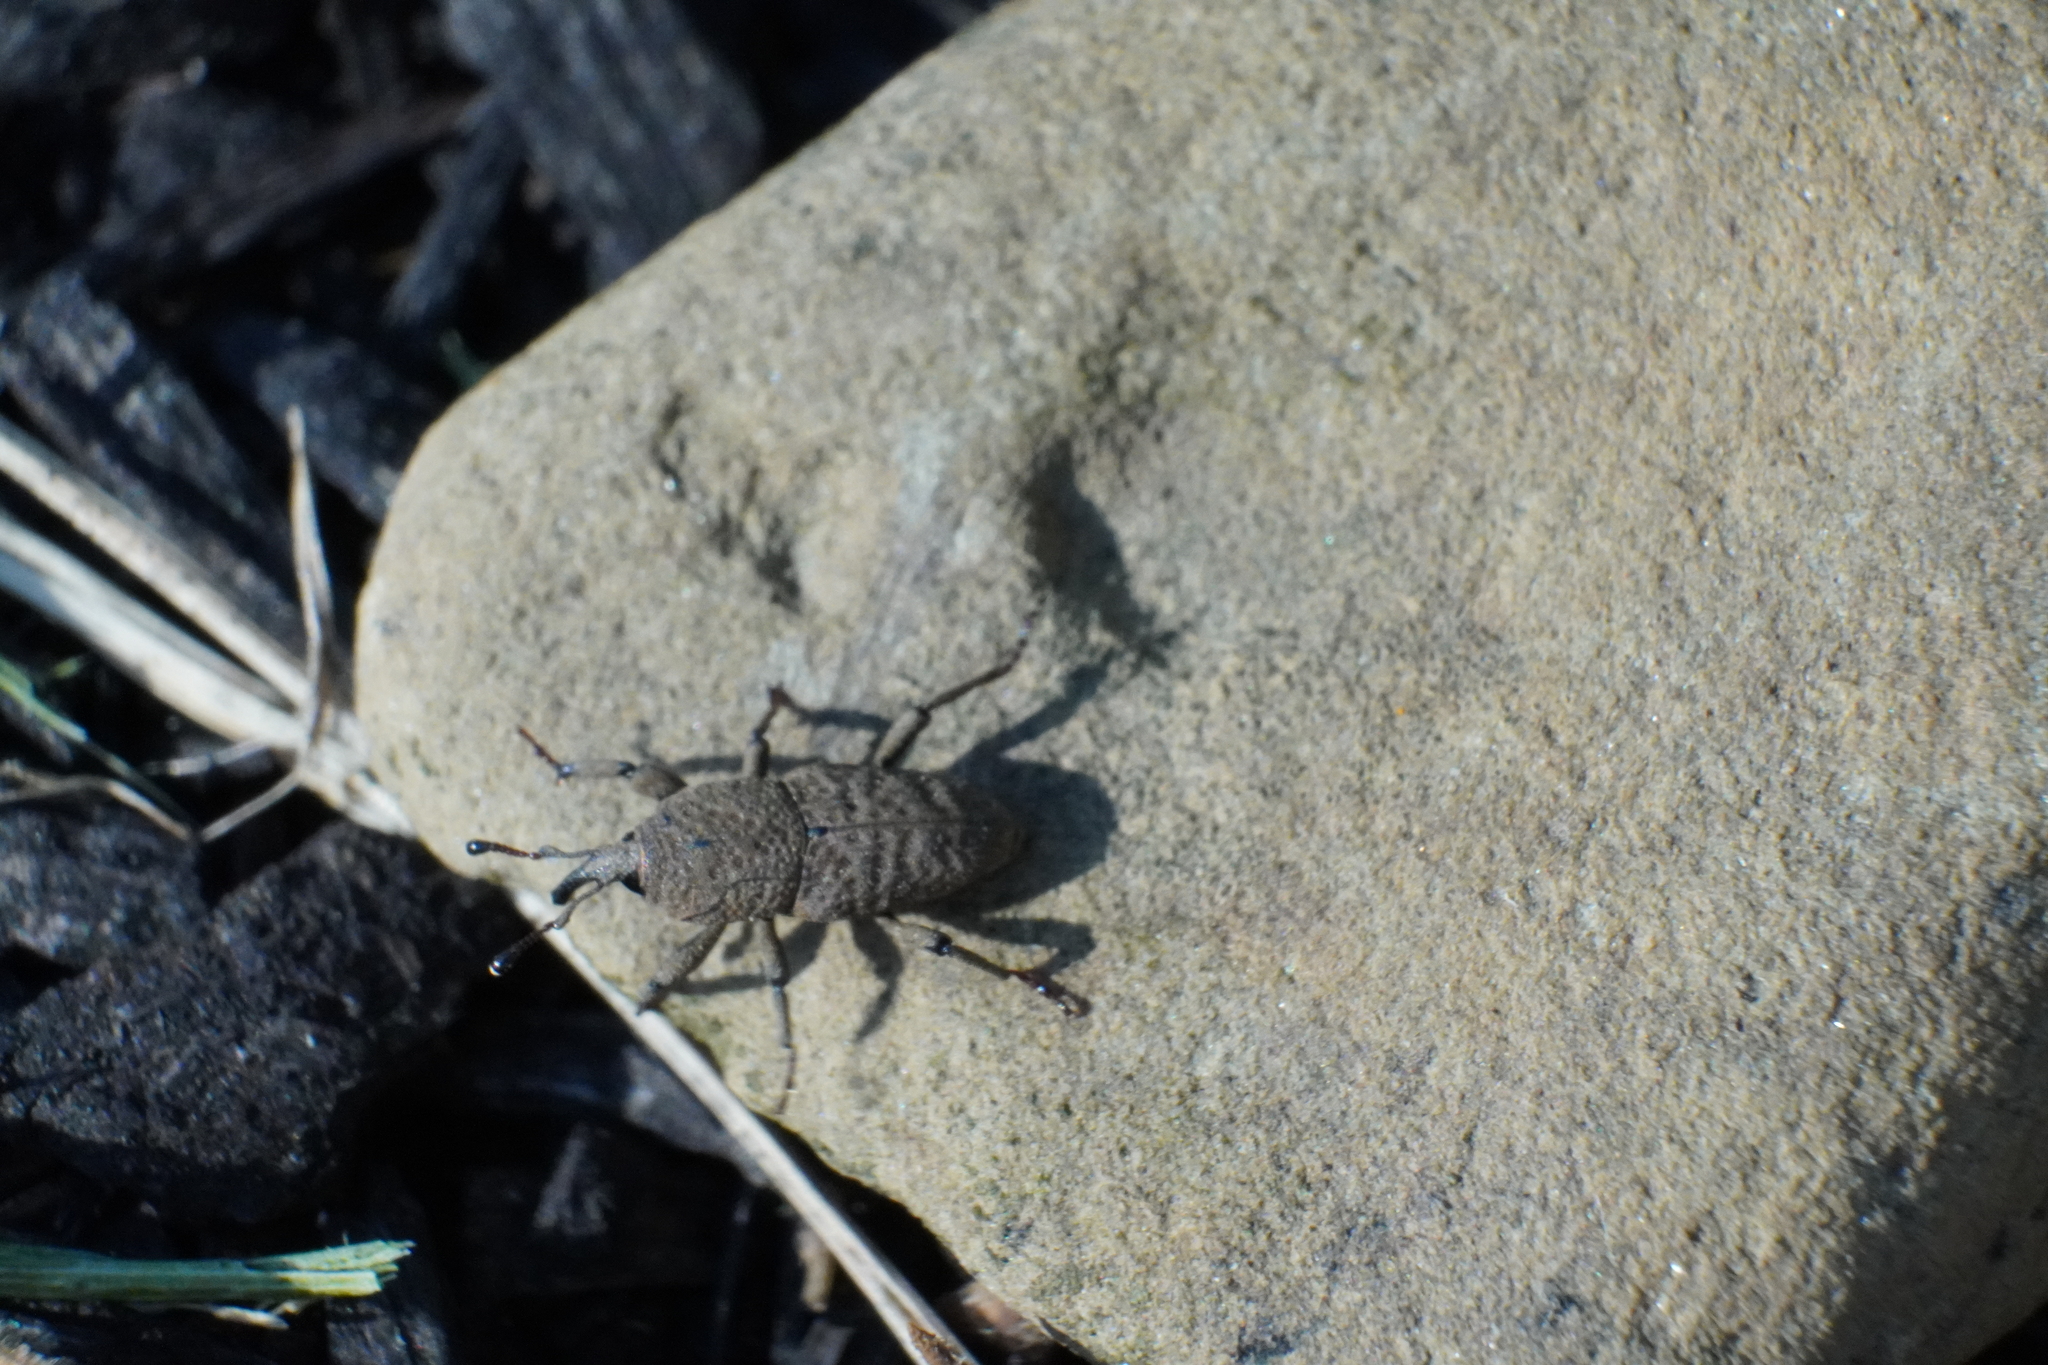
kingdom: Animalia
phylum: Arthropoda
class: Insecta
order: Coleoptera
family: Dryophthoridae
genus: Sphenophorus
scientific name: Sphenophorus minimus
